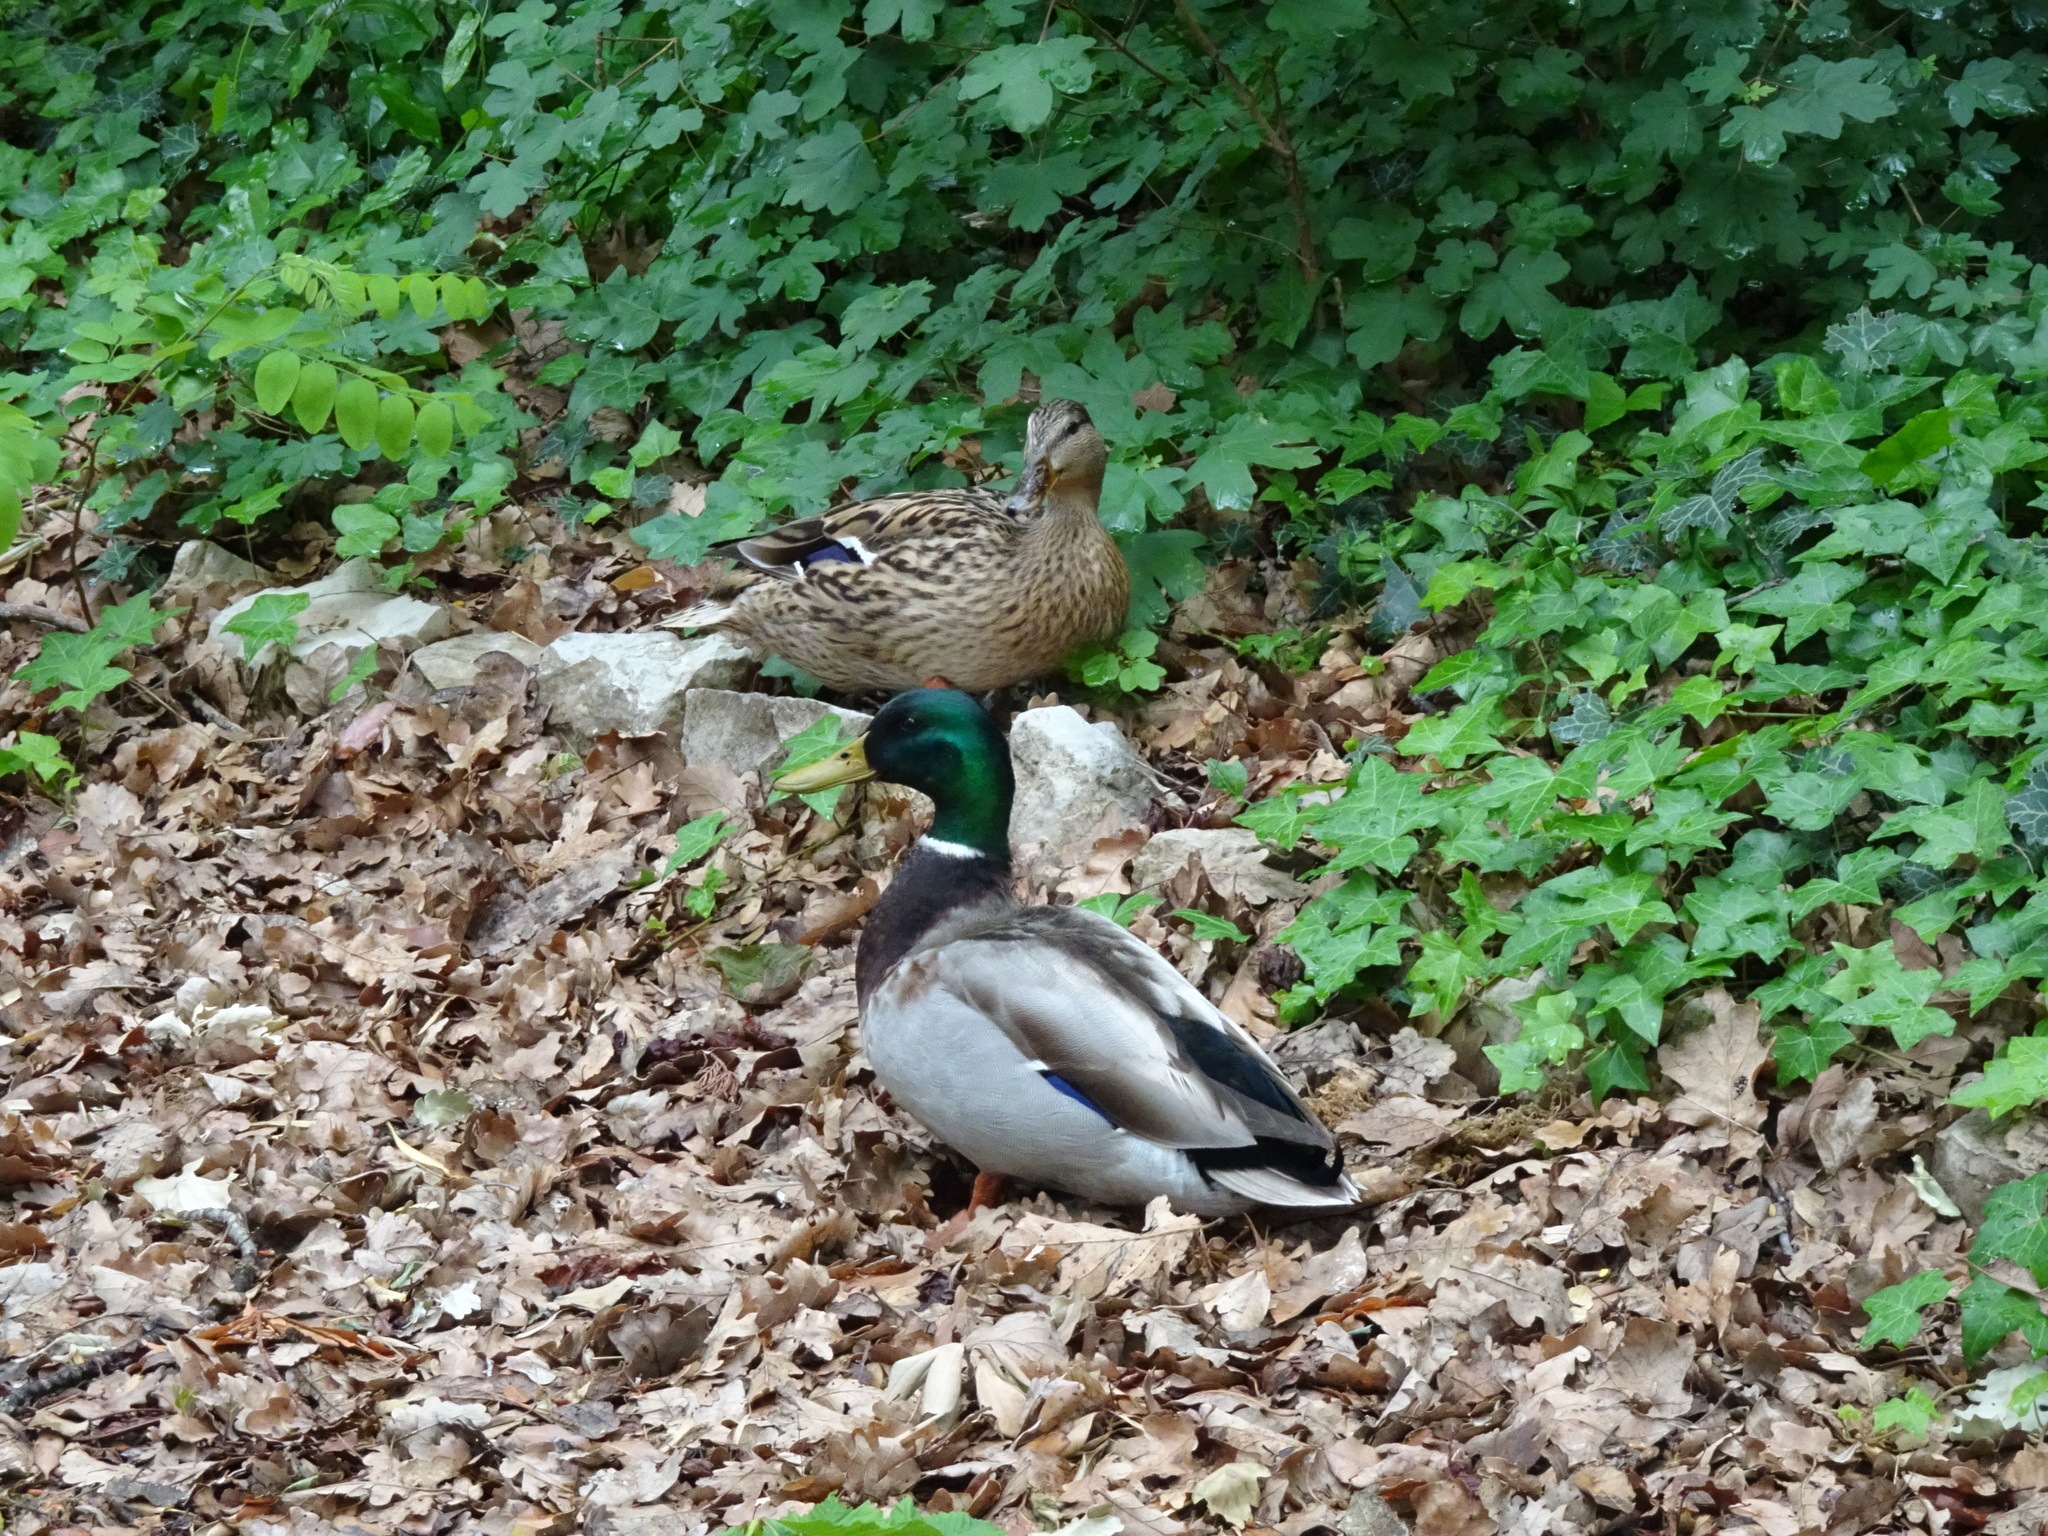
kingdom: Animalia
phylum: Chordata
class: Aves
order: Anseriformes
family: Anatidae
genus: Anas
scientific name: Anas platyrhynchos
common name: Mallard
